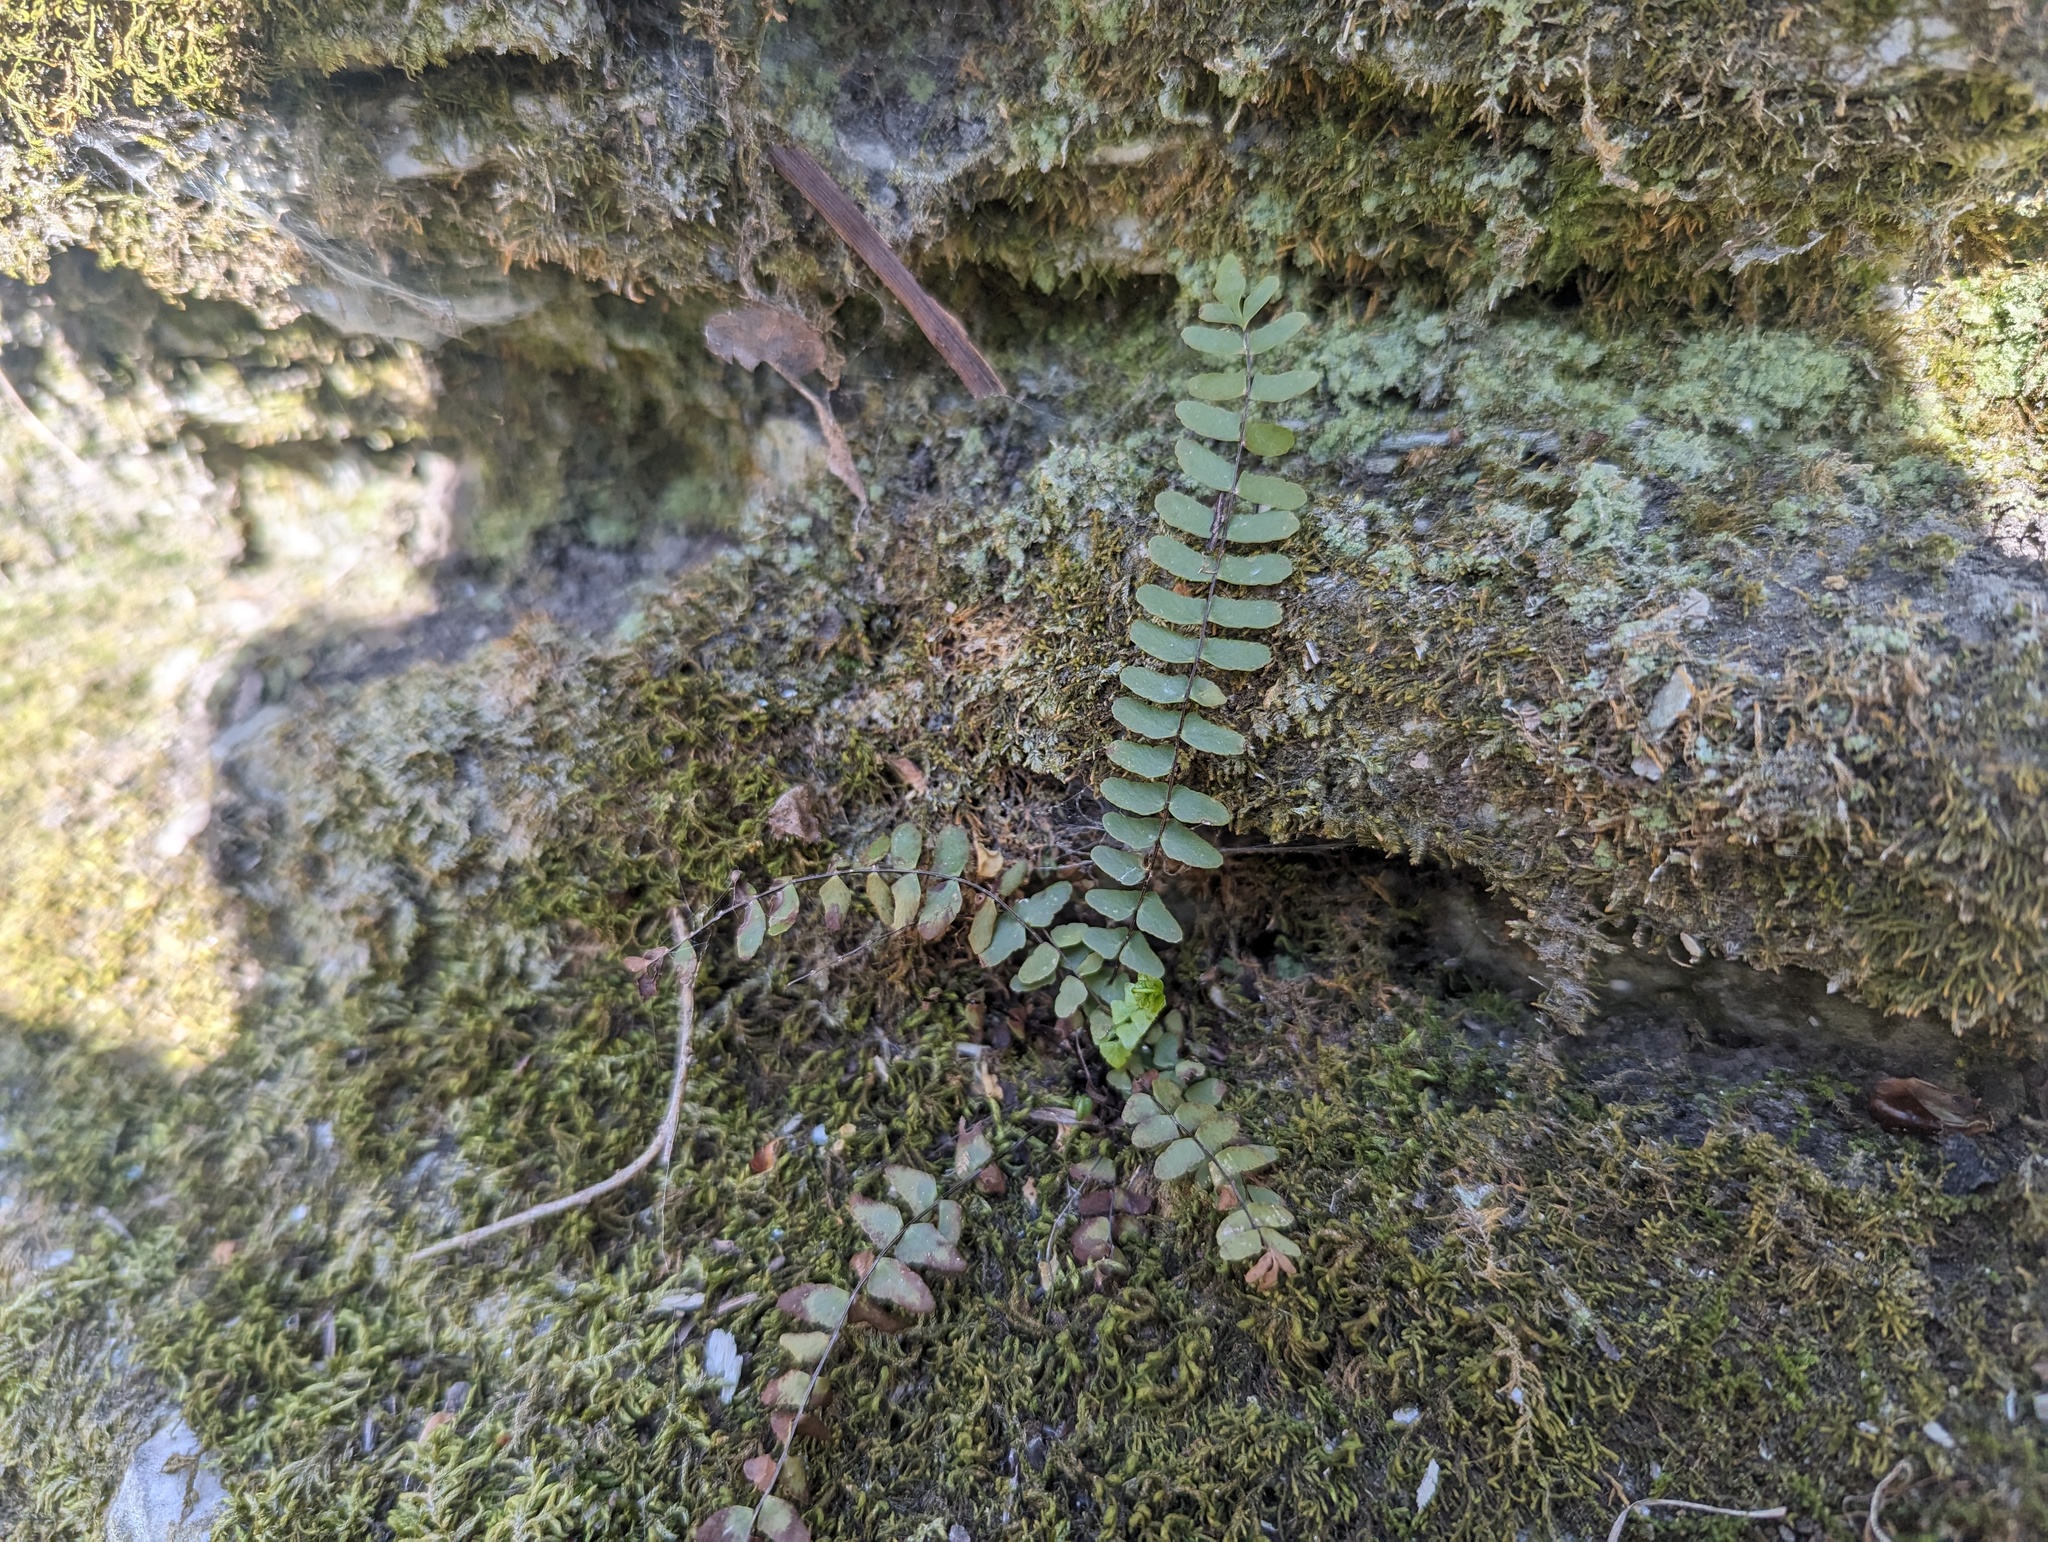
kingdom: Plantae
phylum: Tracheophyta
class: Polypodiopsida
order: Polypodiales
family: Aspleniaceae
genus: Asplenium
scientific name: Asplenium resiliens
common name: Blackstem spleenwort
